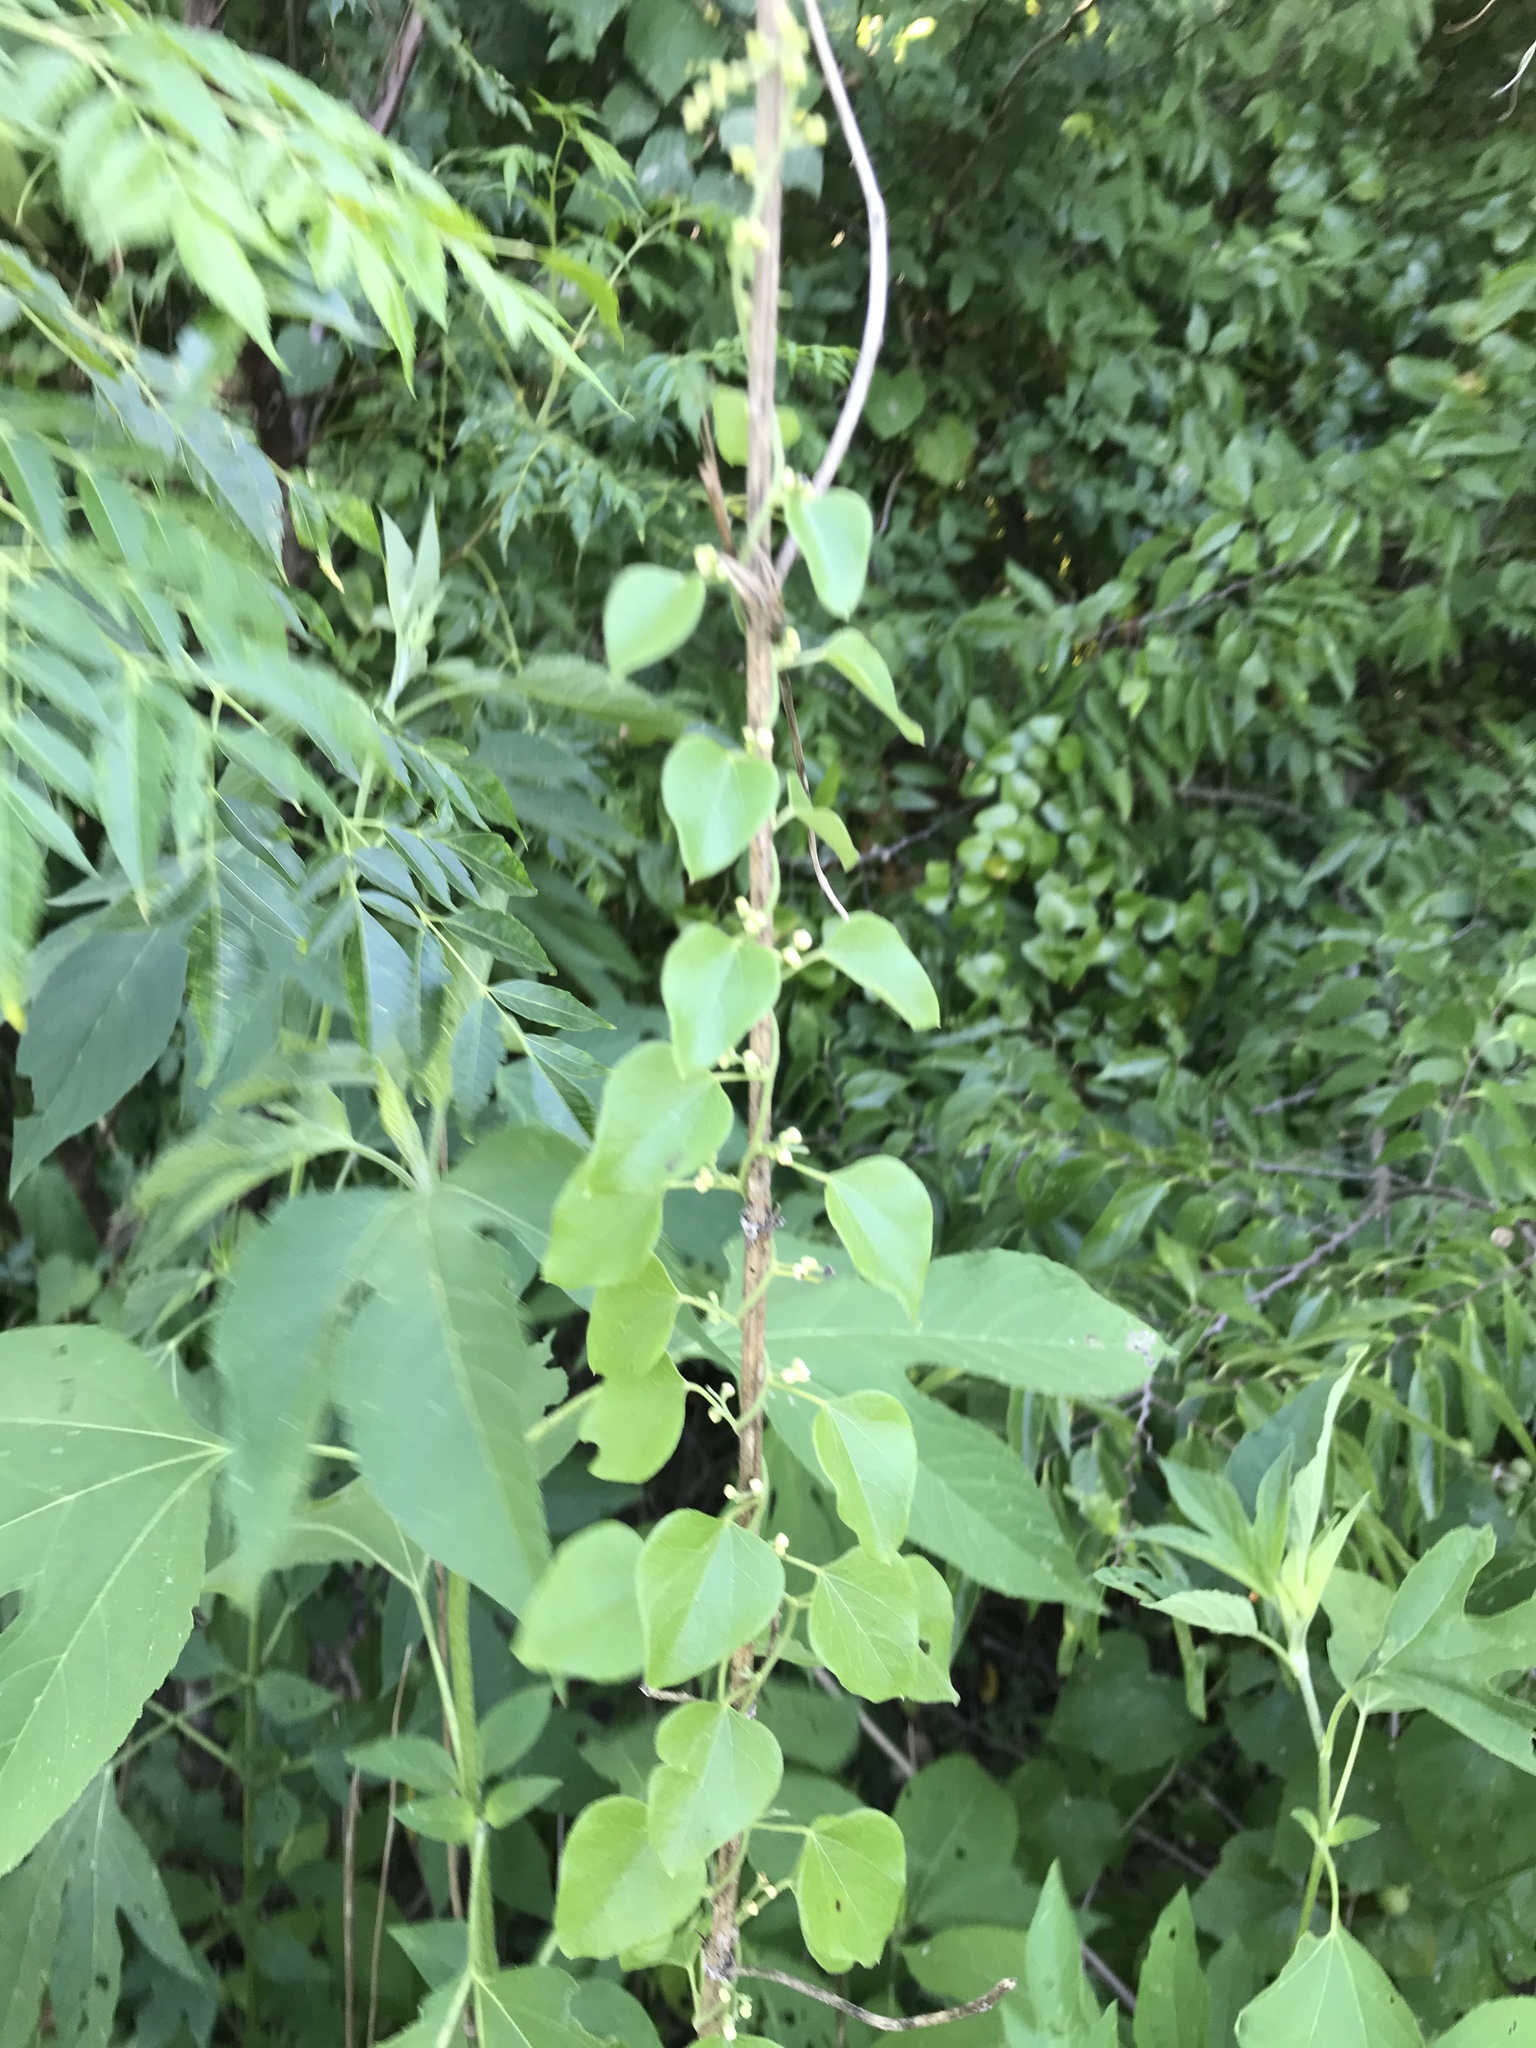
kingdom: Plantae
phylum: Tracheophyta
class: Magnoliopsida
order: Ranunculales
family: Menispermaceae
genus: Cocculus
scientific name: Cocculus carolinus
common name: Carolina moonseed
